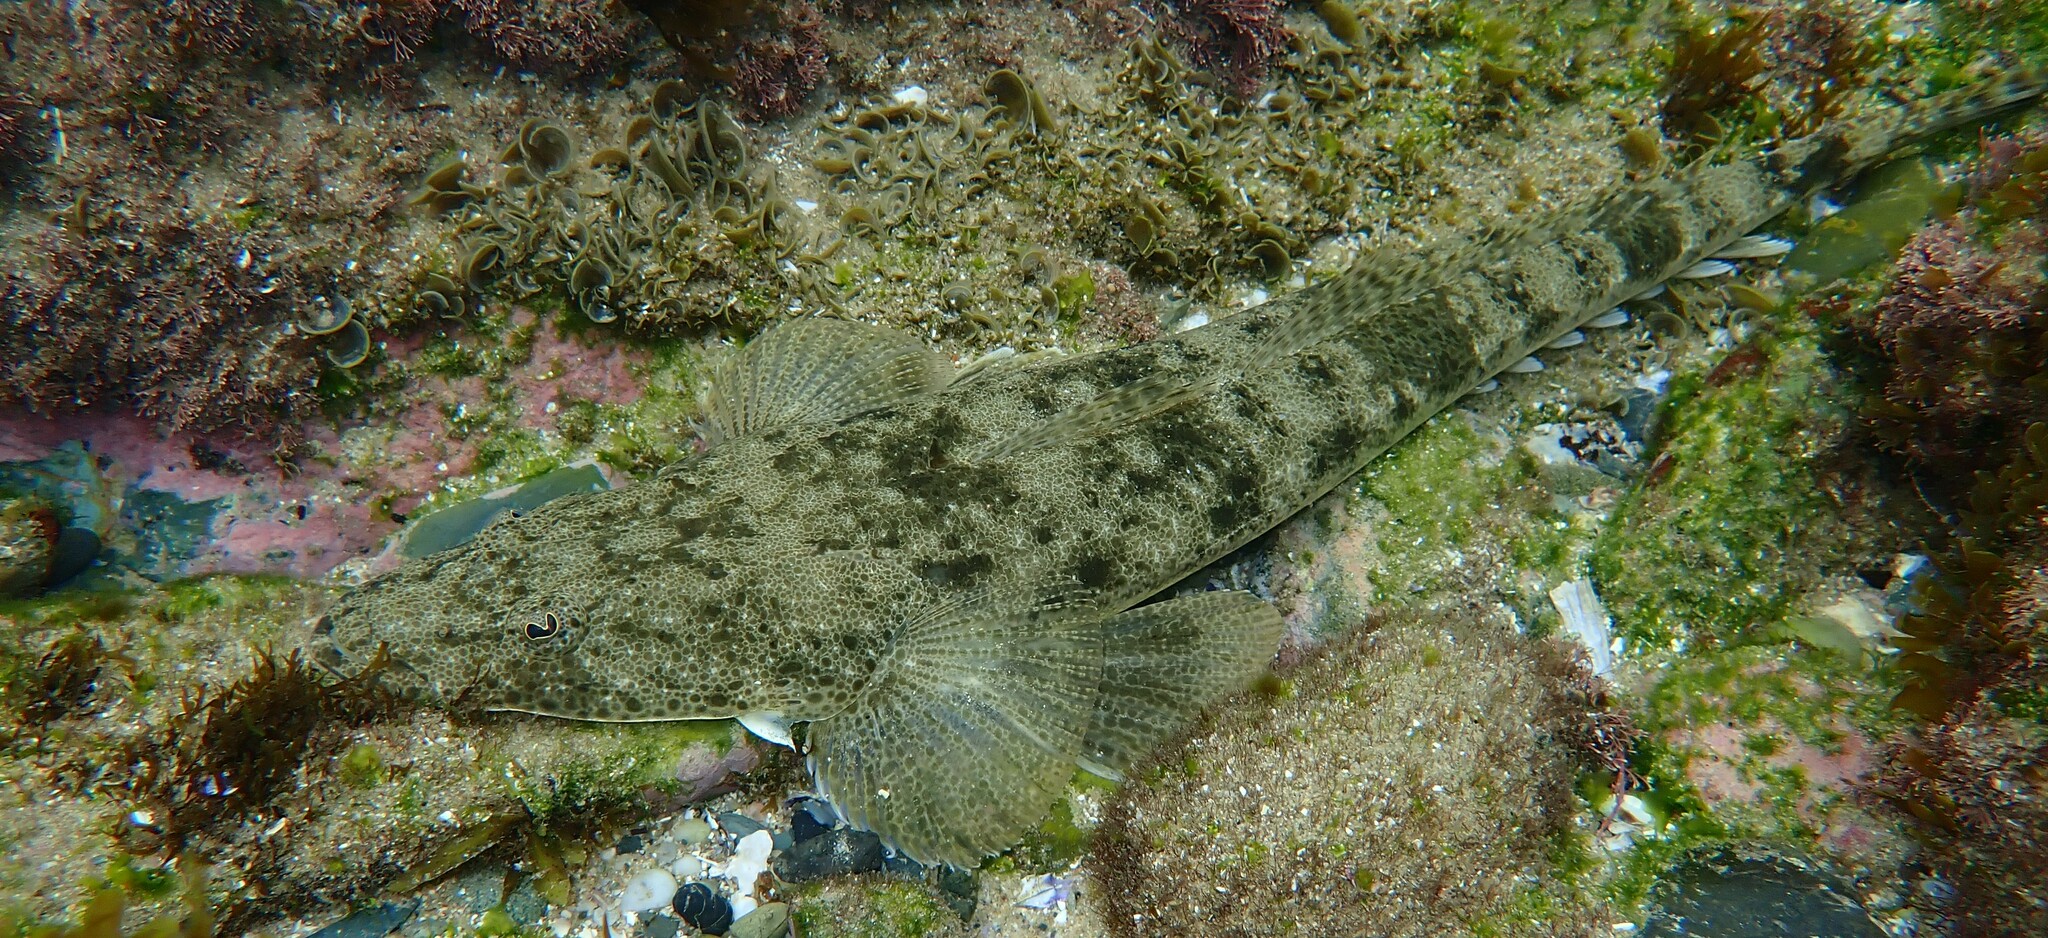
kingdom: Animalia
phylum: Chordata
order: Scorpaeniformes
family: Platycephalidae
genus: Platycephalus
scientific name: Platycephalus fuscus
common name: Dusky flathead
